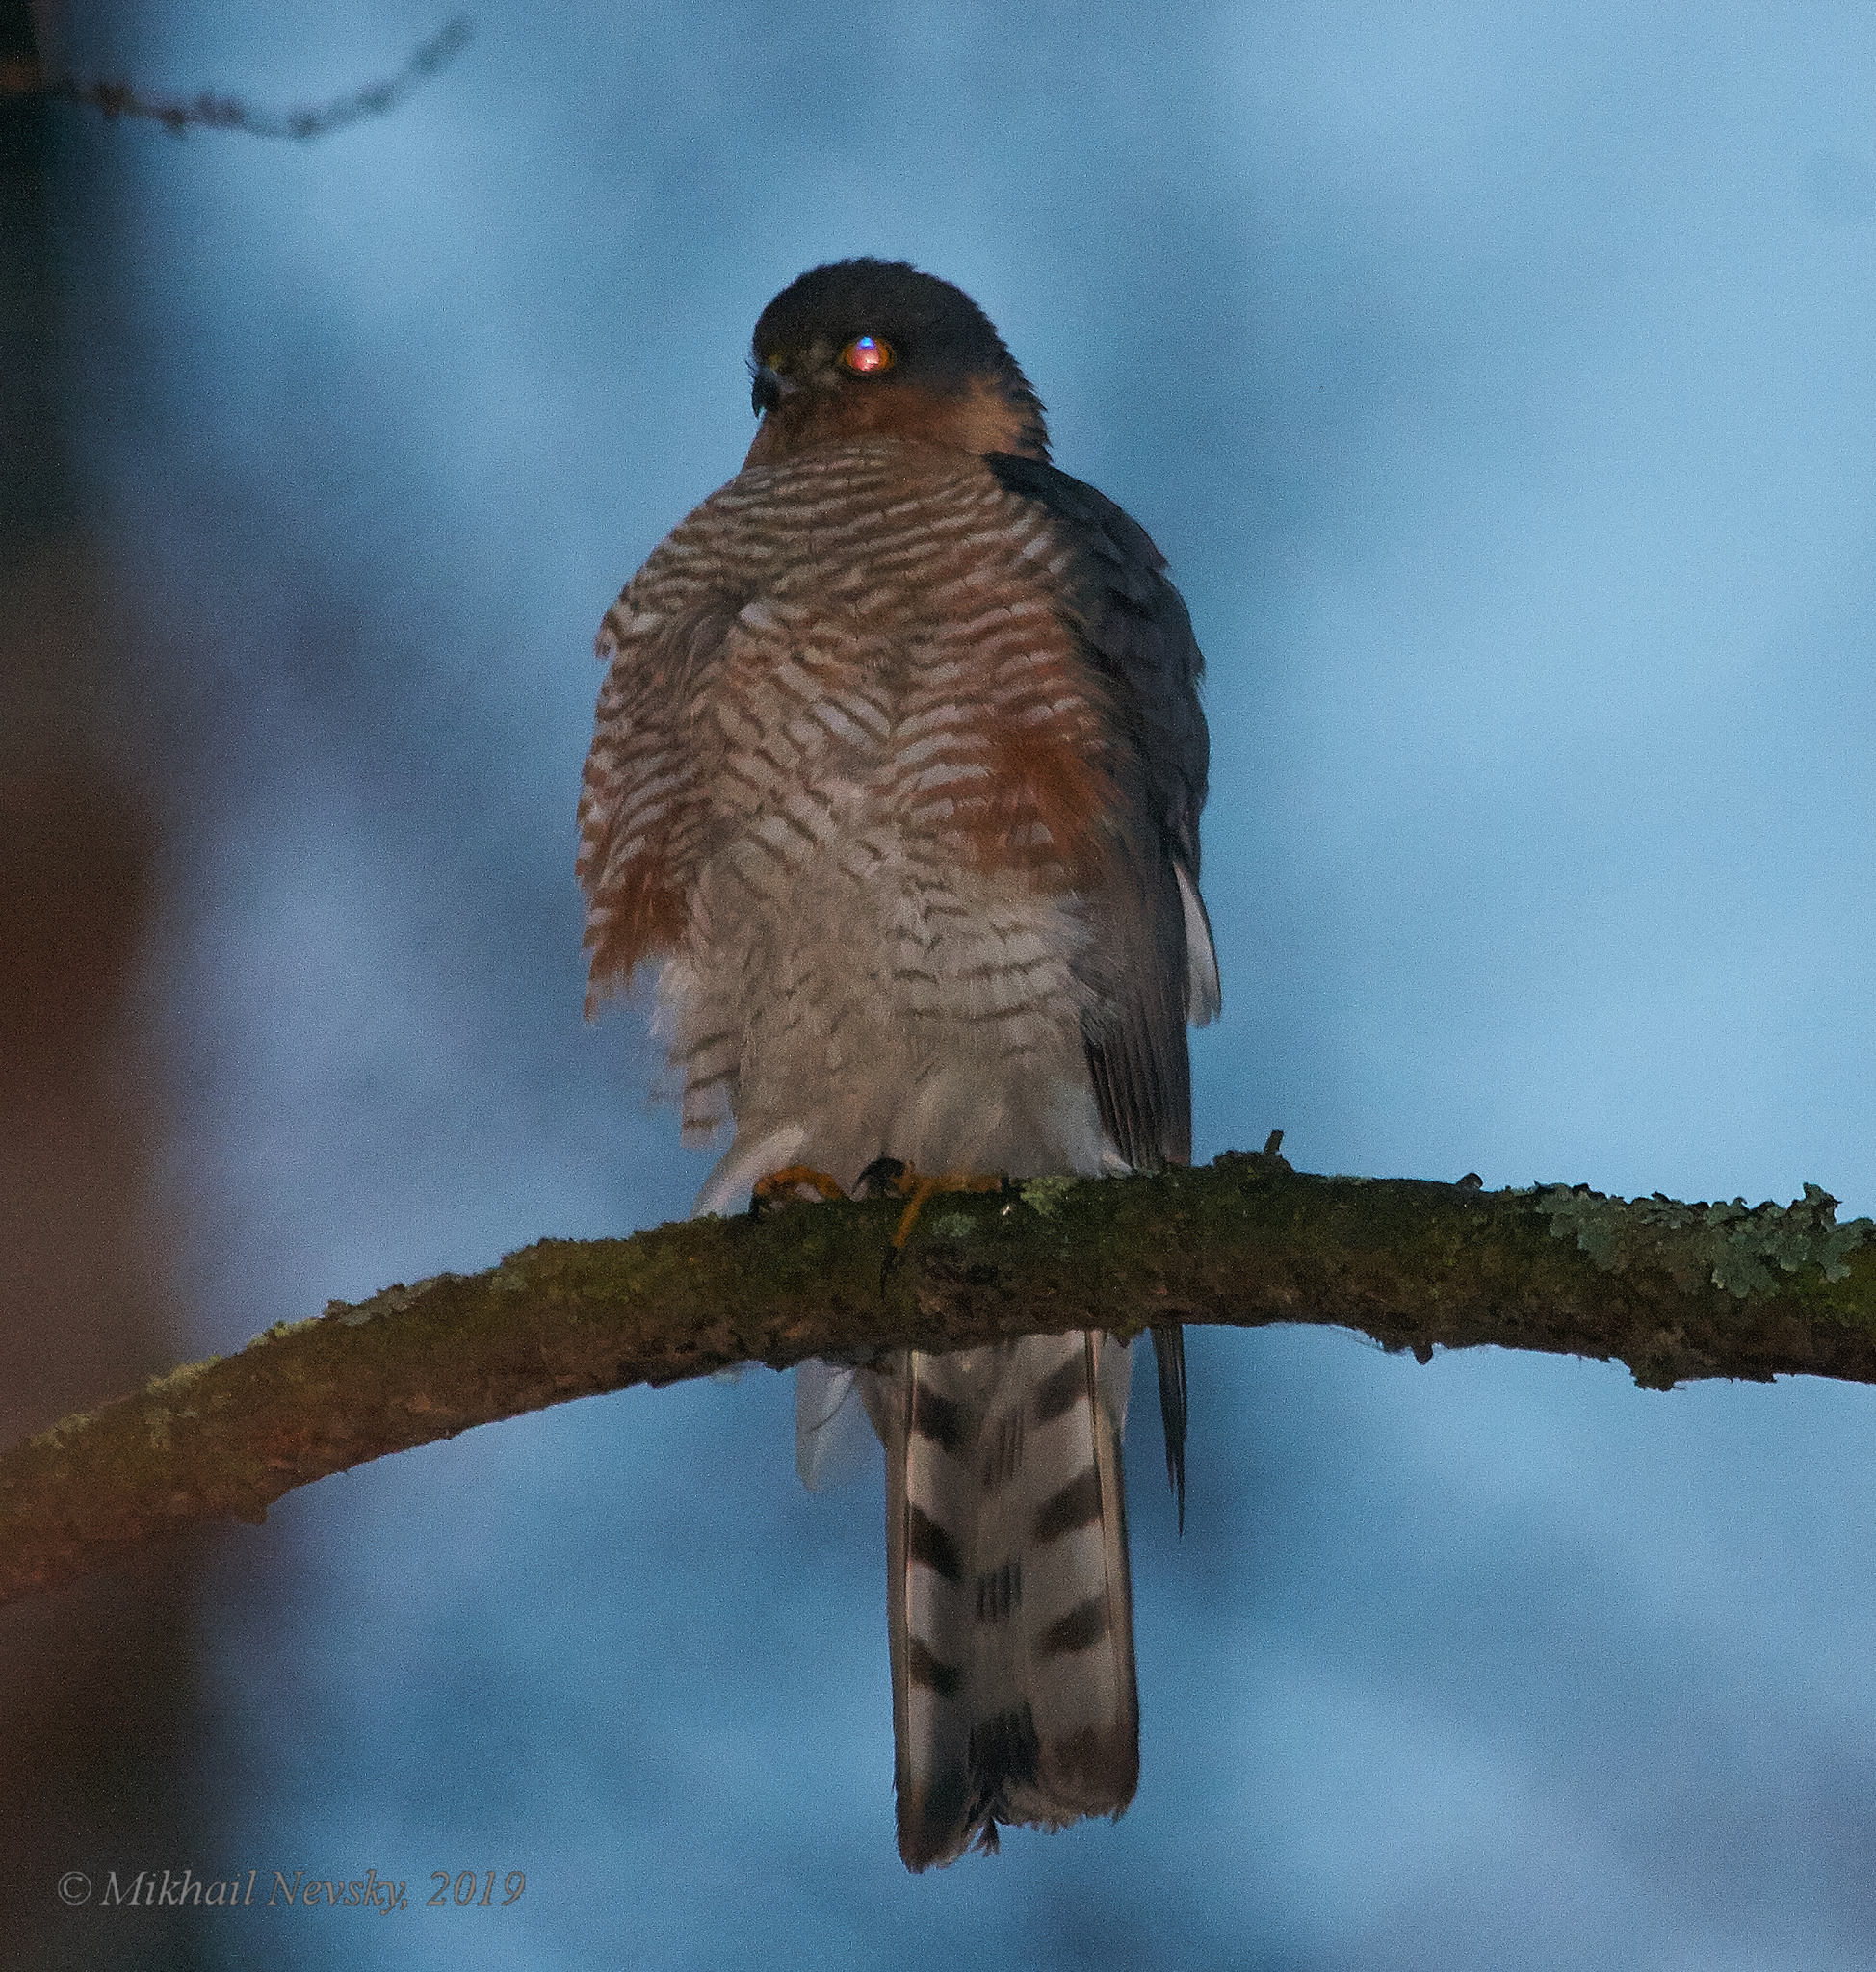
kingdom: Animalia
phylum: Chordata
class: Aves
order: Accipitriformes
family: Accipitridae
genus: Accipiter
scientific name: Accipiter nisus
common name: Eurasian sparrowhawk
